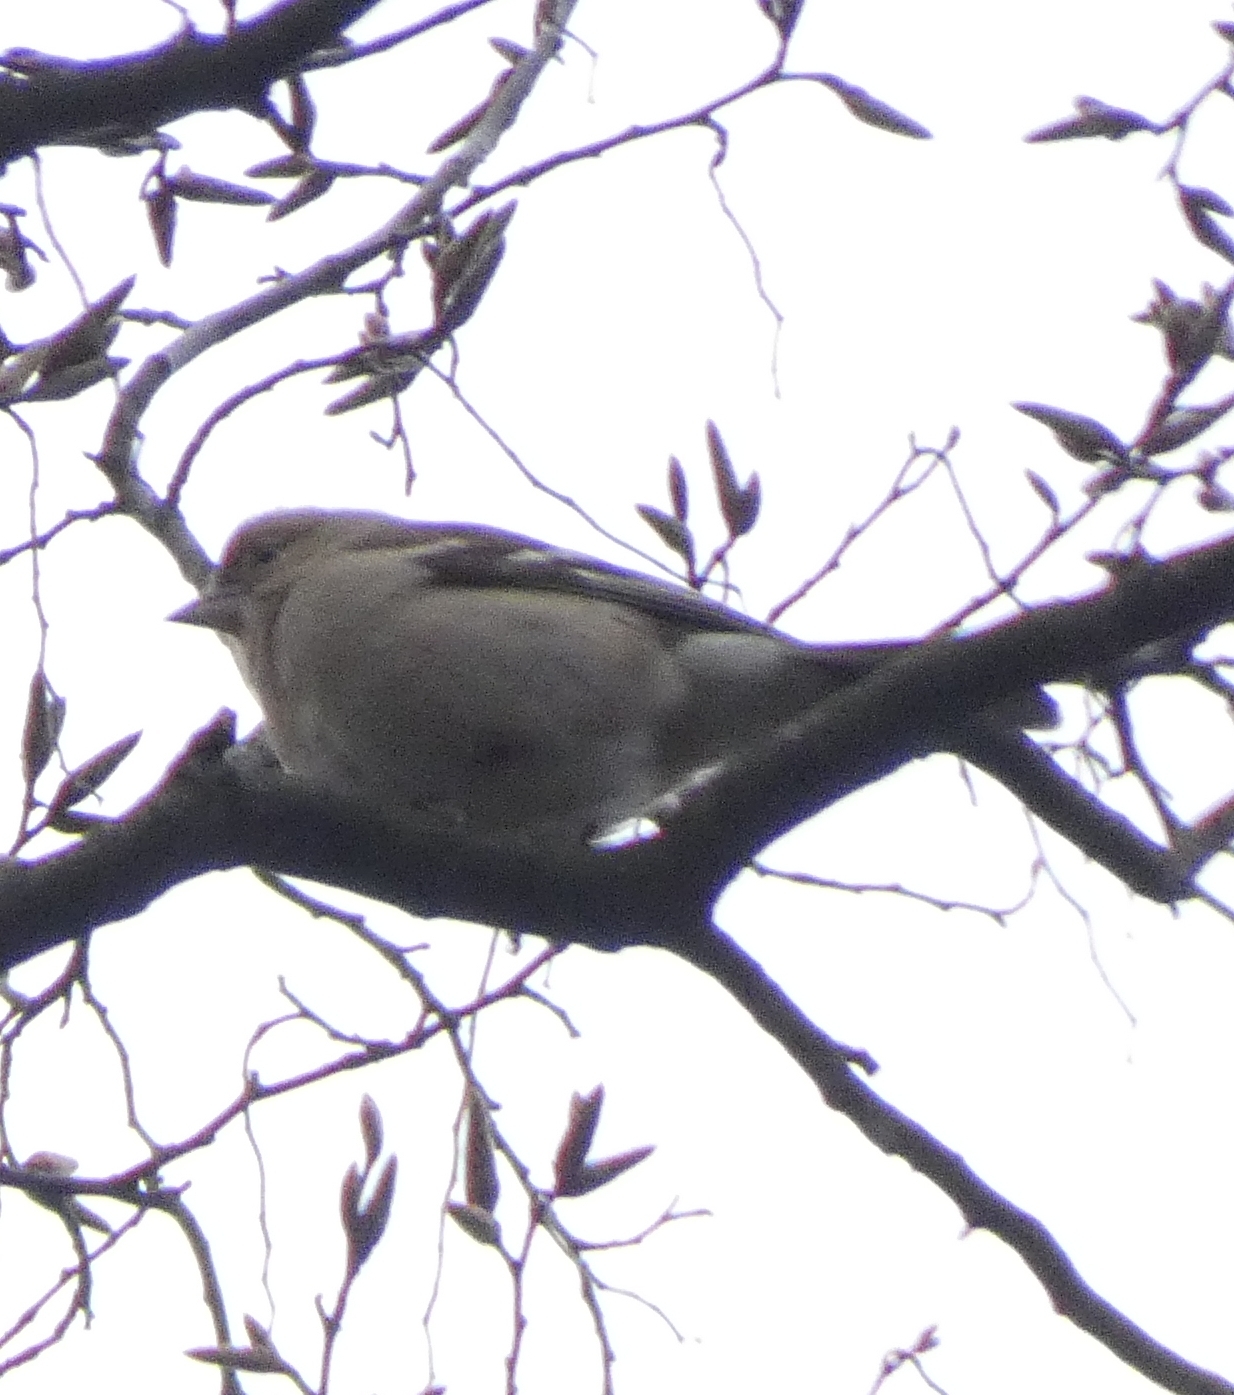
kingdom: Animalia
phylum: Chordata
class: Aves
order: Passeriformes
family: Fringillidae
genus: Fringilla
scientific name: Fringilla coelebs
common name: Common chaffinch
